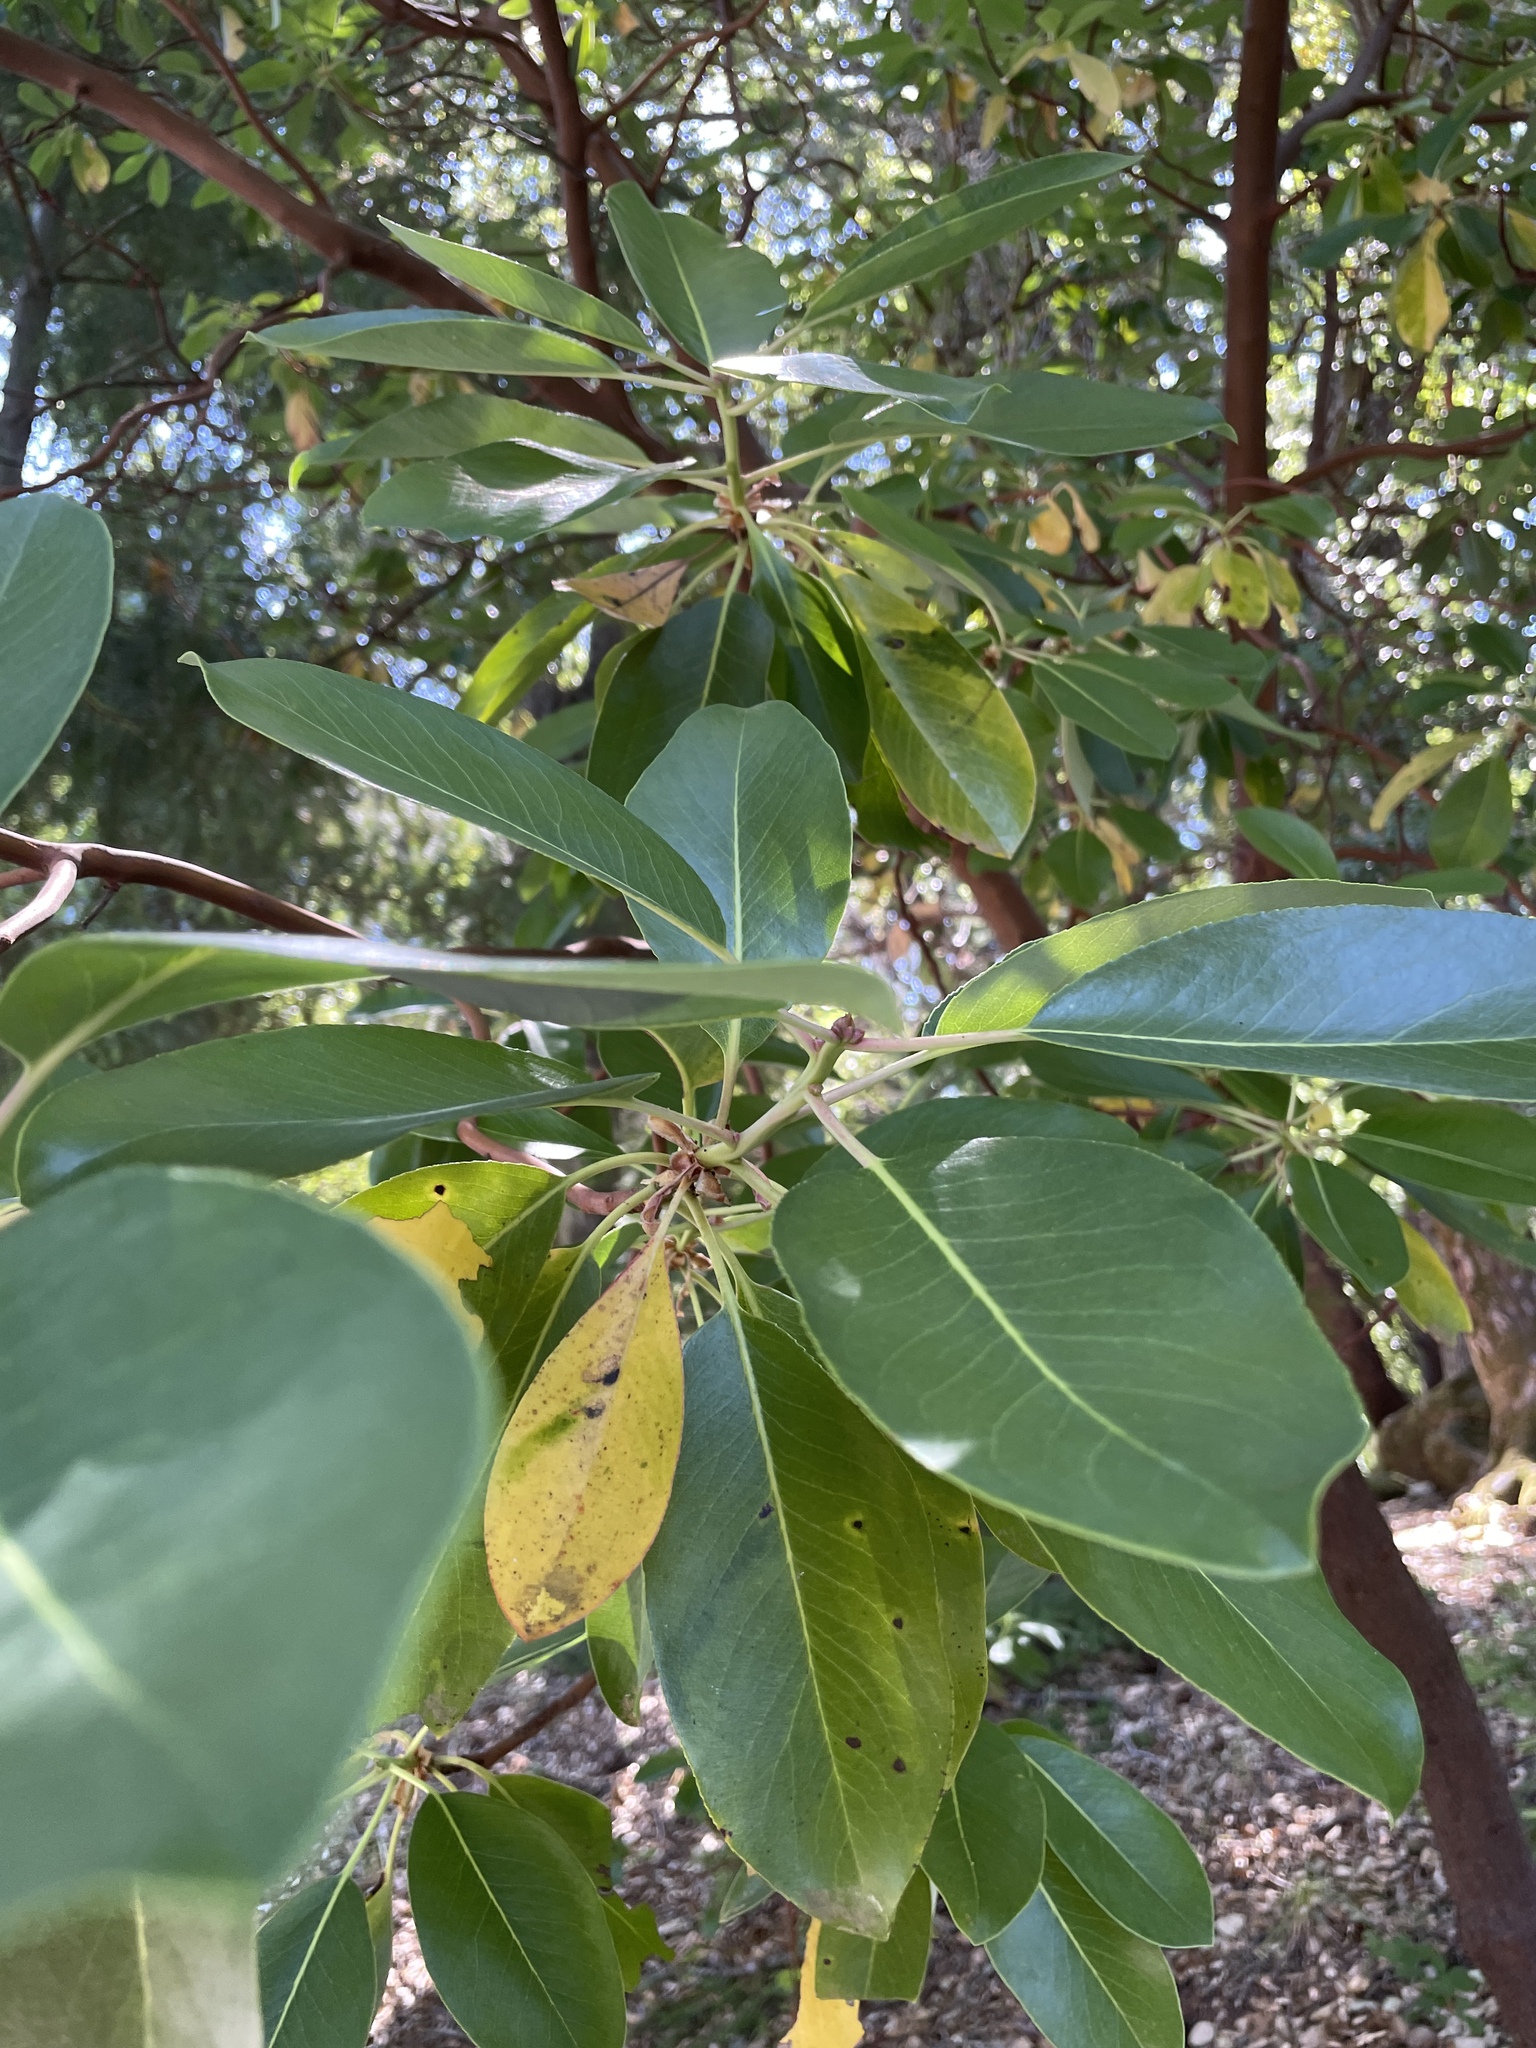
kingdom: Plantae
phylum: Tracheophyta
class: Magnoliopsida
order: Ericales
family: Ericaceae
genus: Arbutus
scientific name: Arbutus menziesii
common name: Pacific madrone
